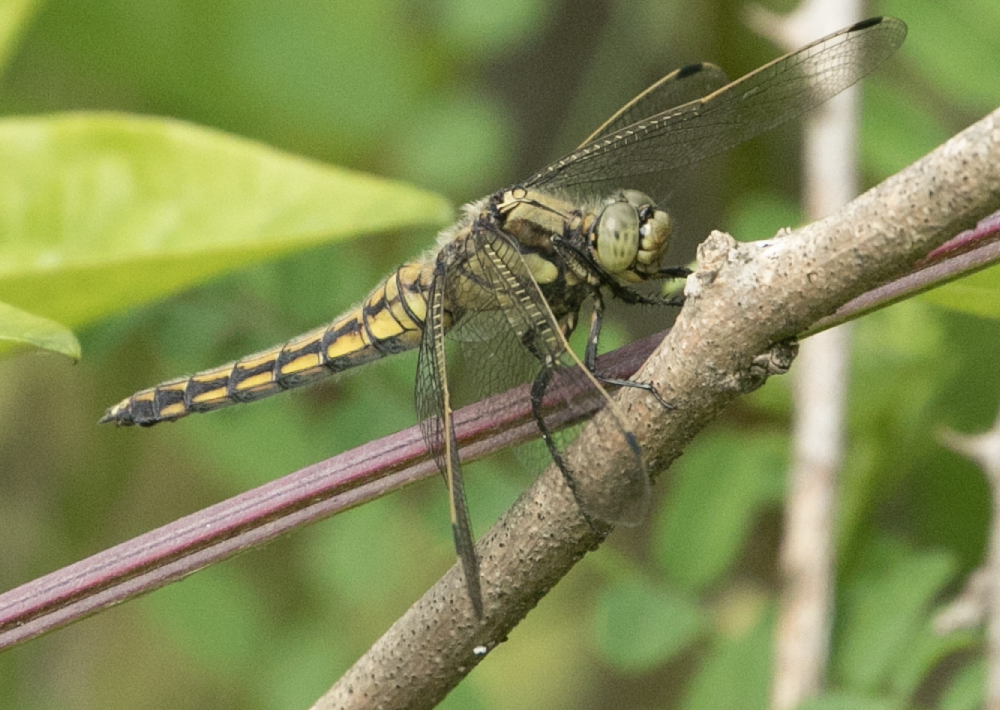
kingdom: Animalia
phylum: Arthropoda
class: Insecta
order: Odonata
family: Libellulidae
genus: Orthetrum
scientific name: Orthetrum cancellatum
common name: Black-tailed skimmer
